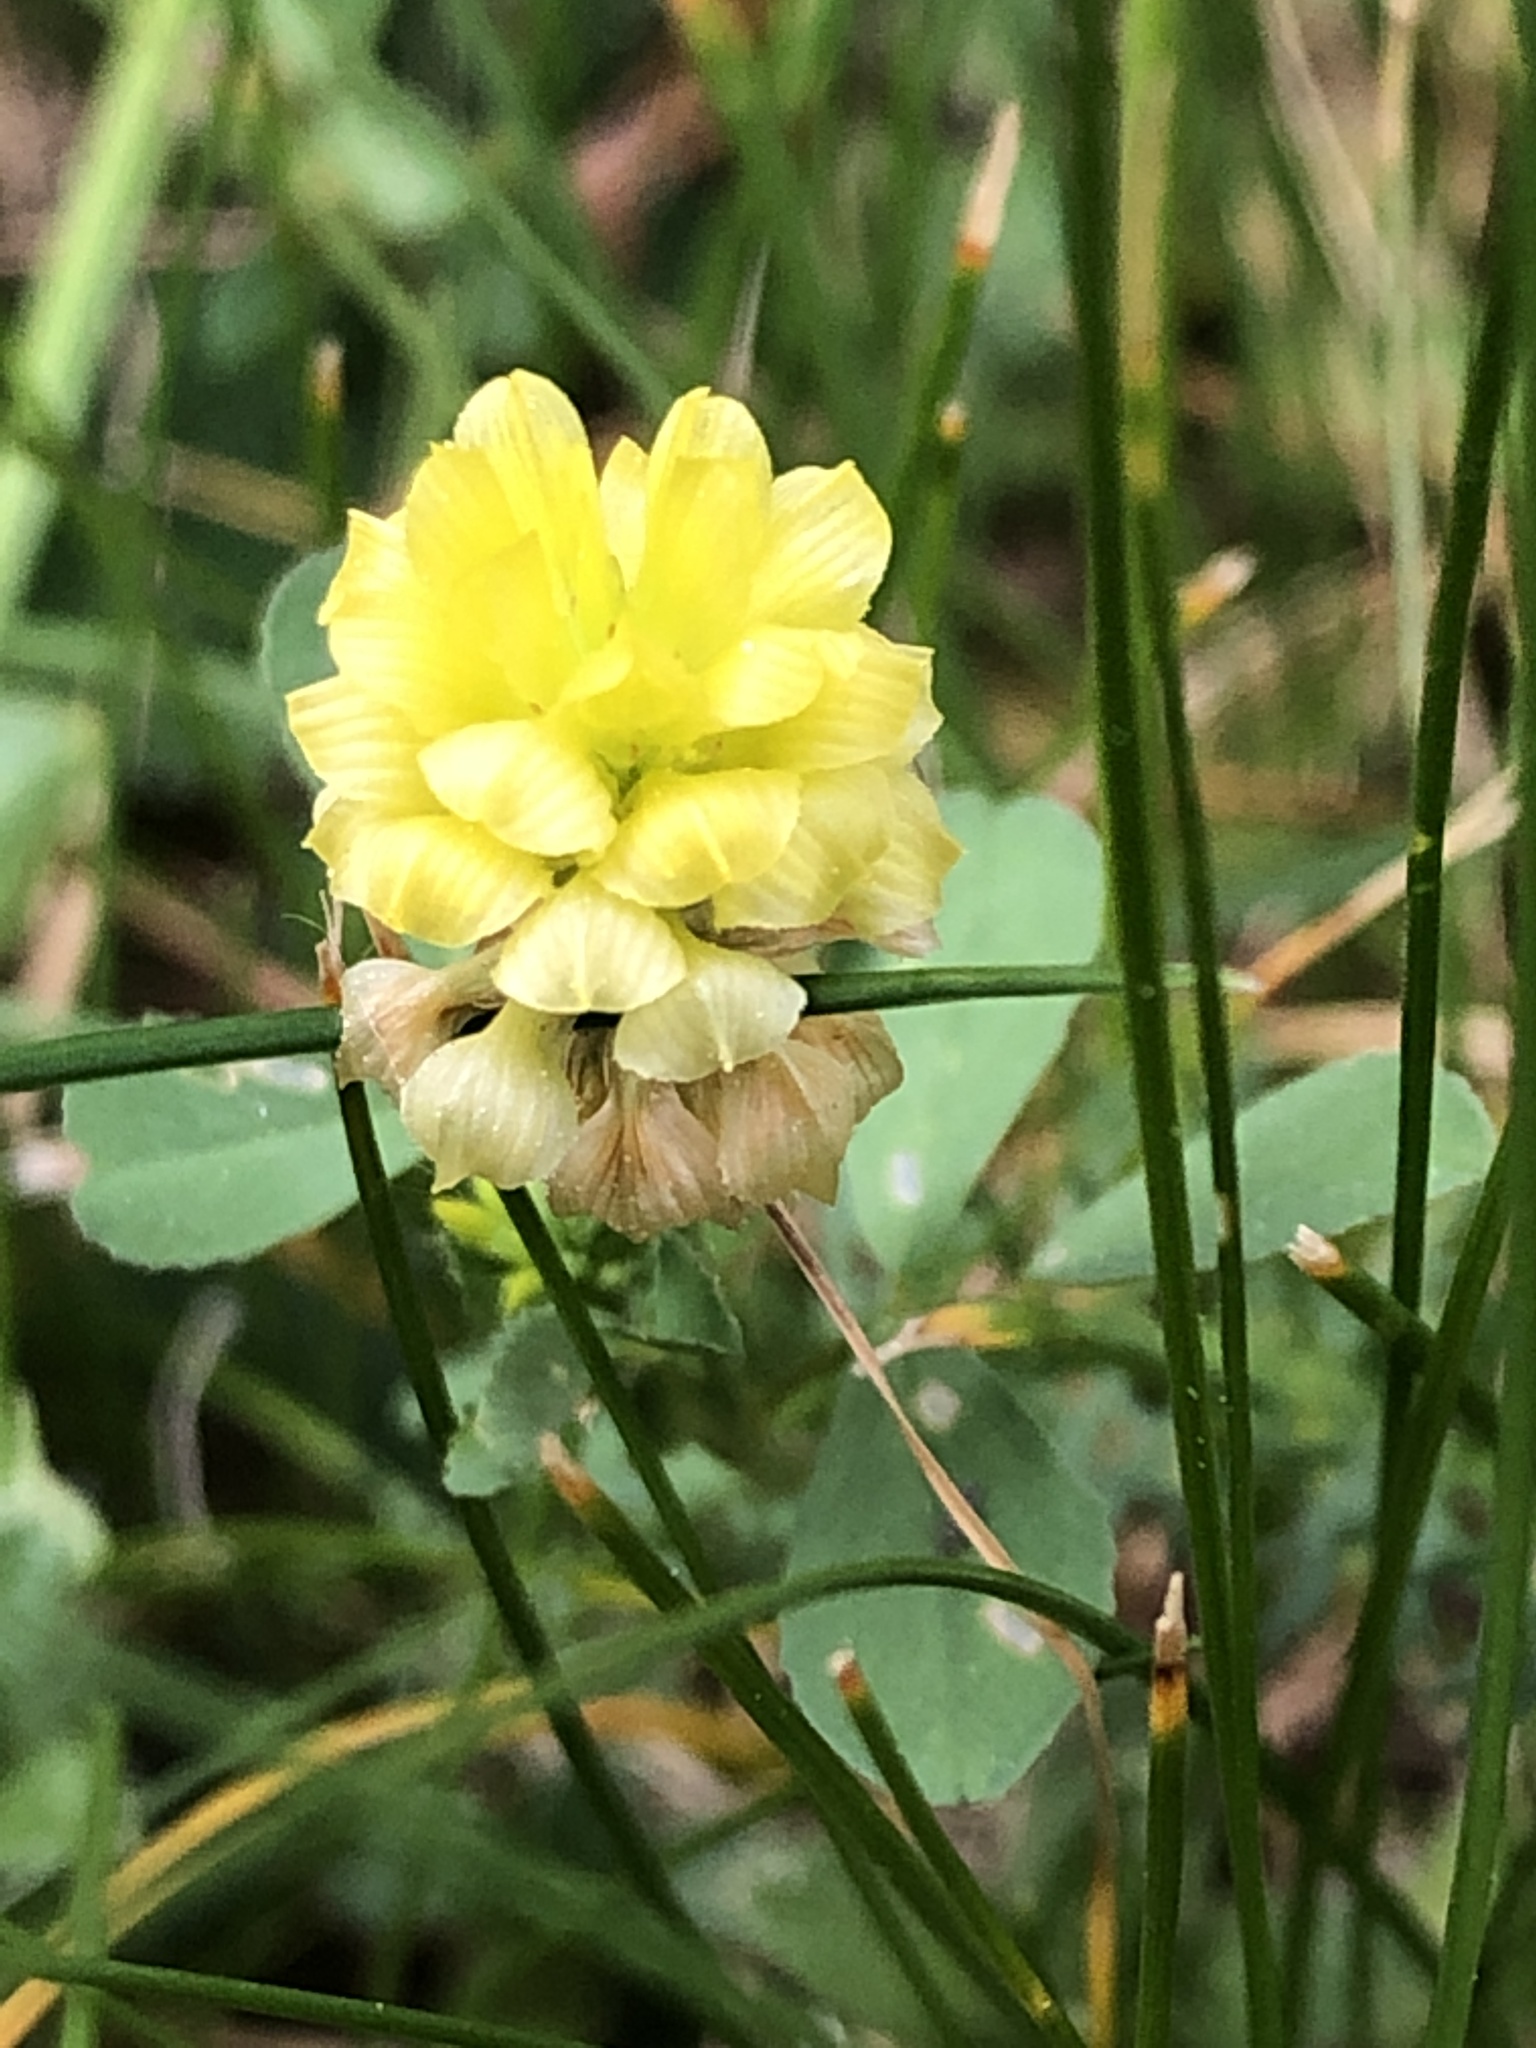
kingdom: Plantae
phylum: Tracheophyta
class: Magnoliopsida
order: Fabales
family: Fabaceae
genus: Trifolium
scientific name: Trifolium campestre
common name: Field clover
